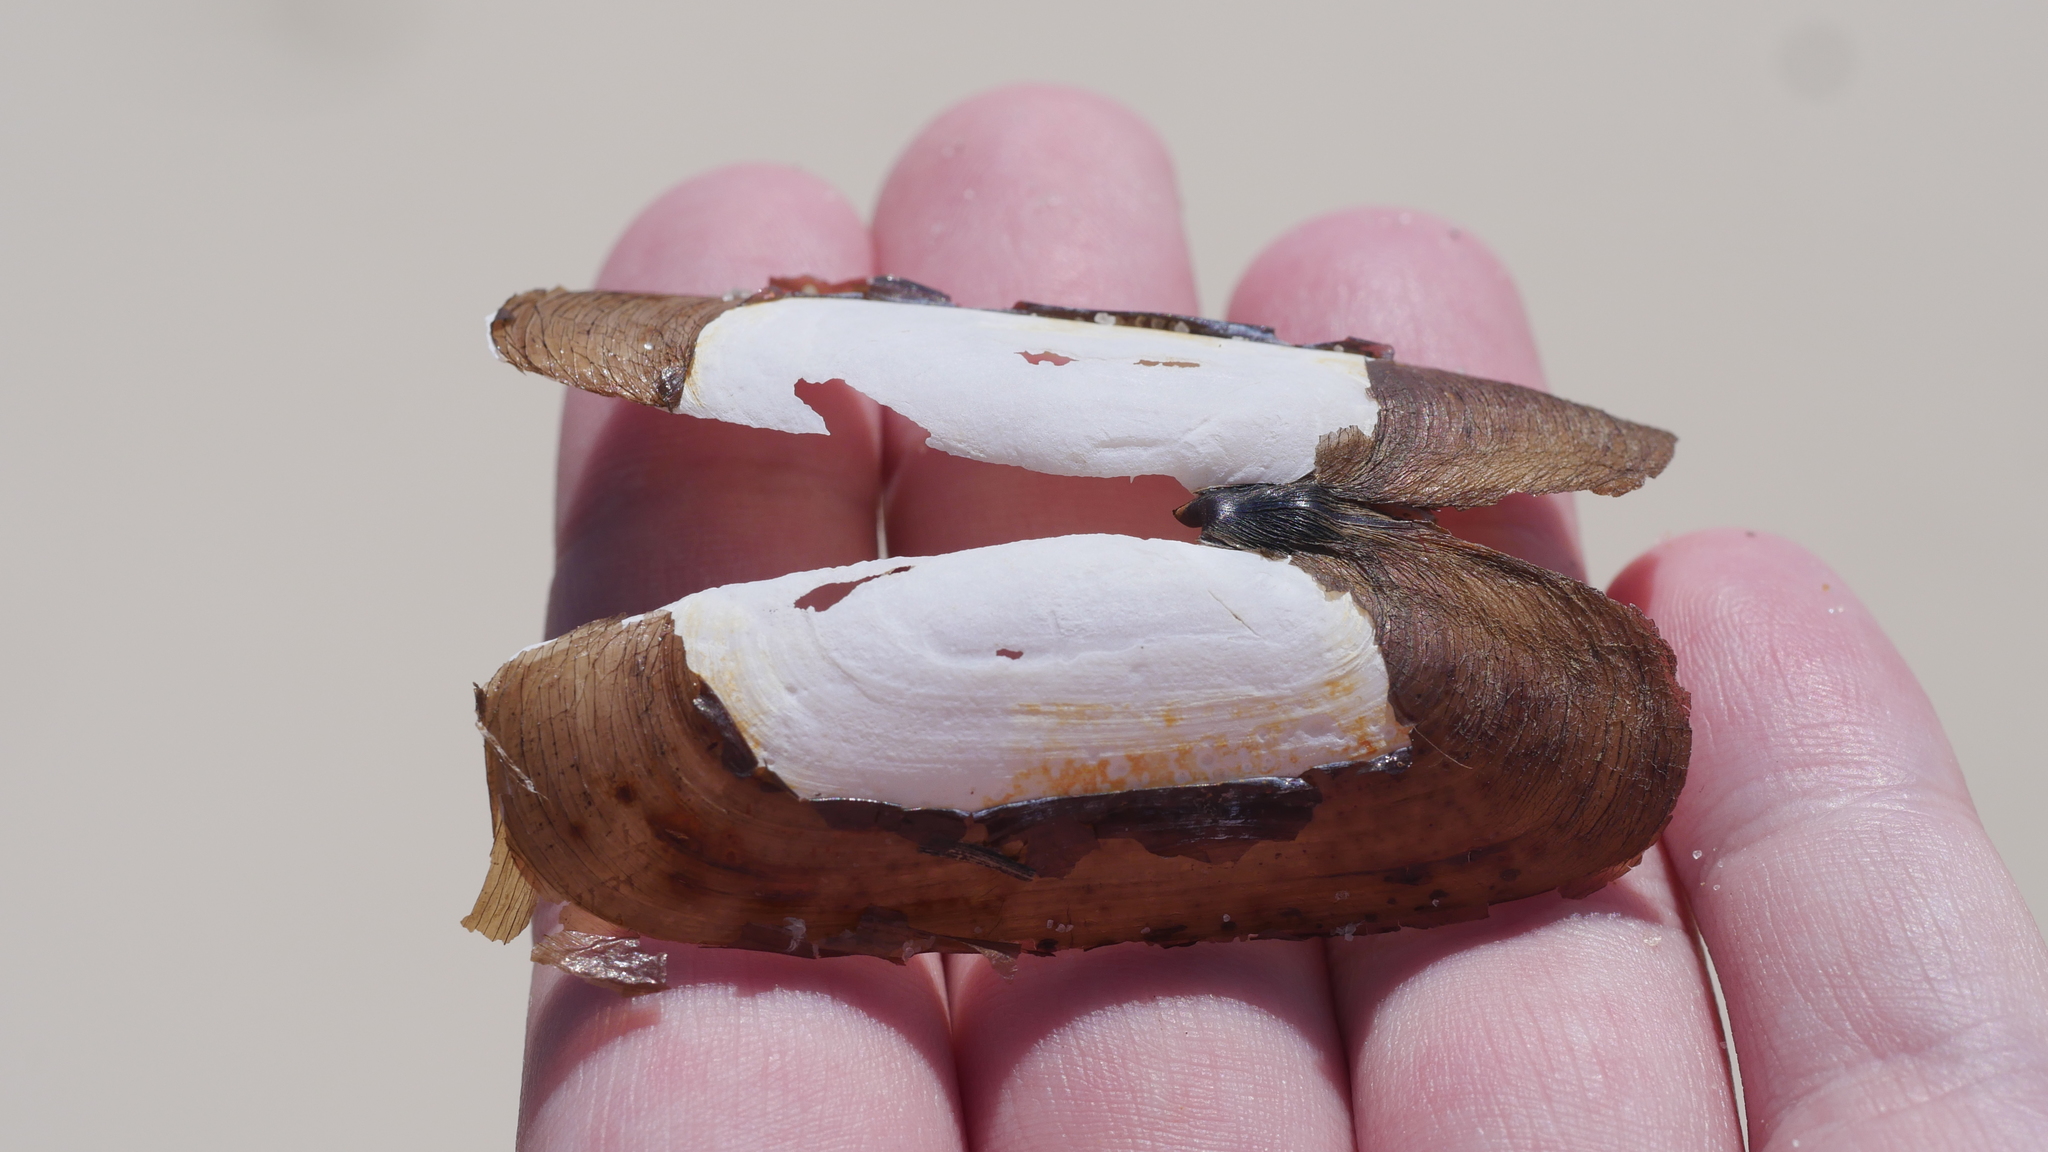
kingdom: Animalia
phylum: Mollusca
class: Bivalvia
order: Cardiida
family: Solecurtidae
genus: Tagelus
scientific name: Tagelus plebeius
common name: Stout tagelus
